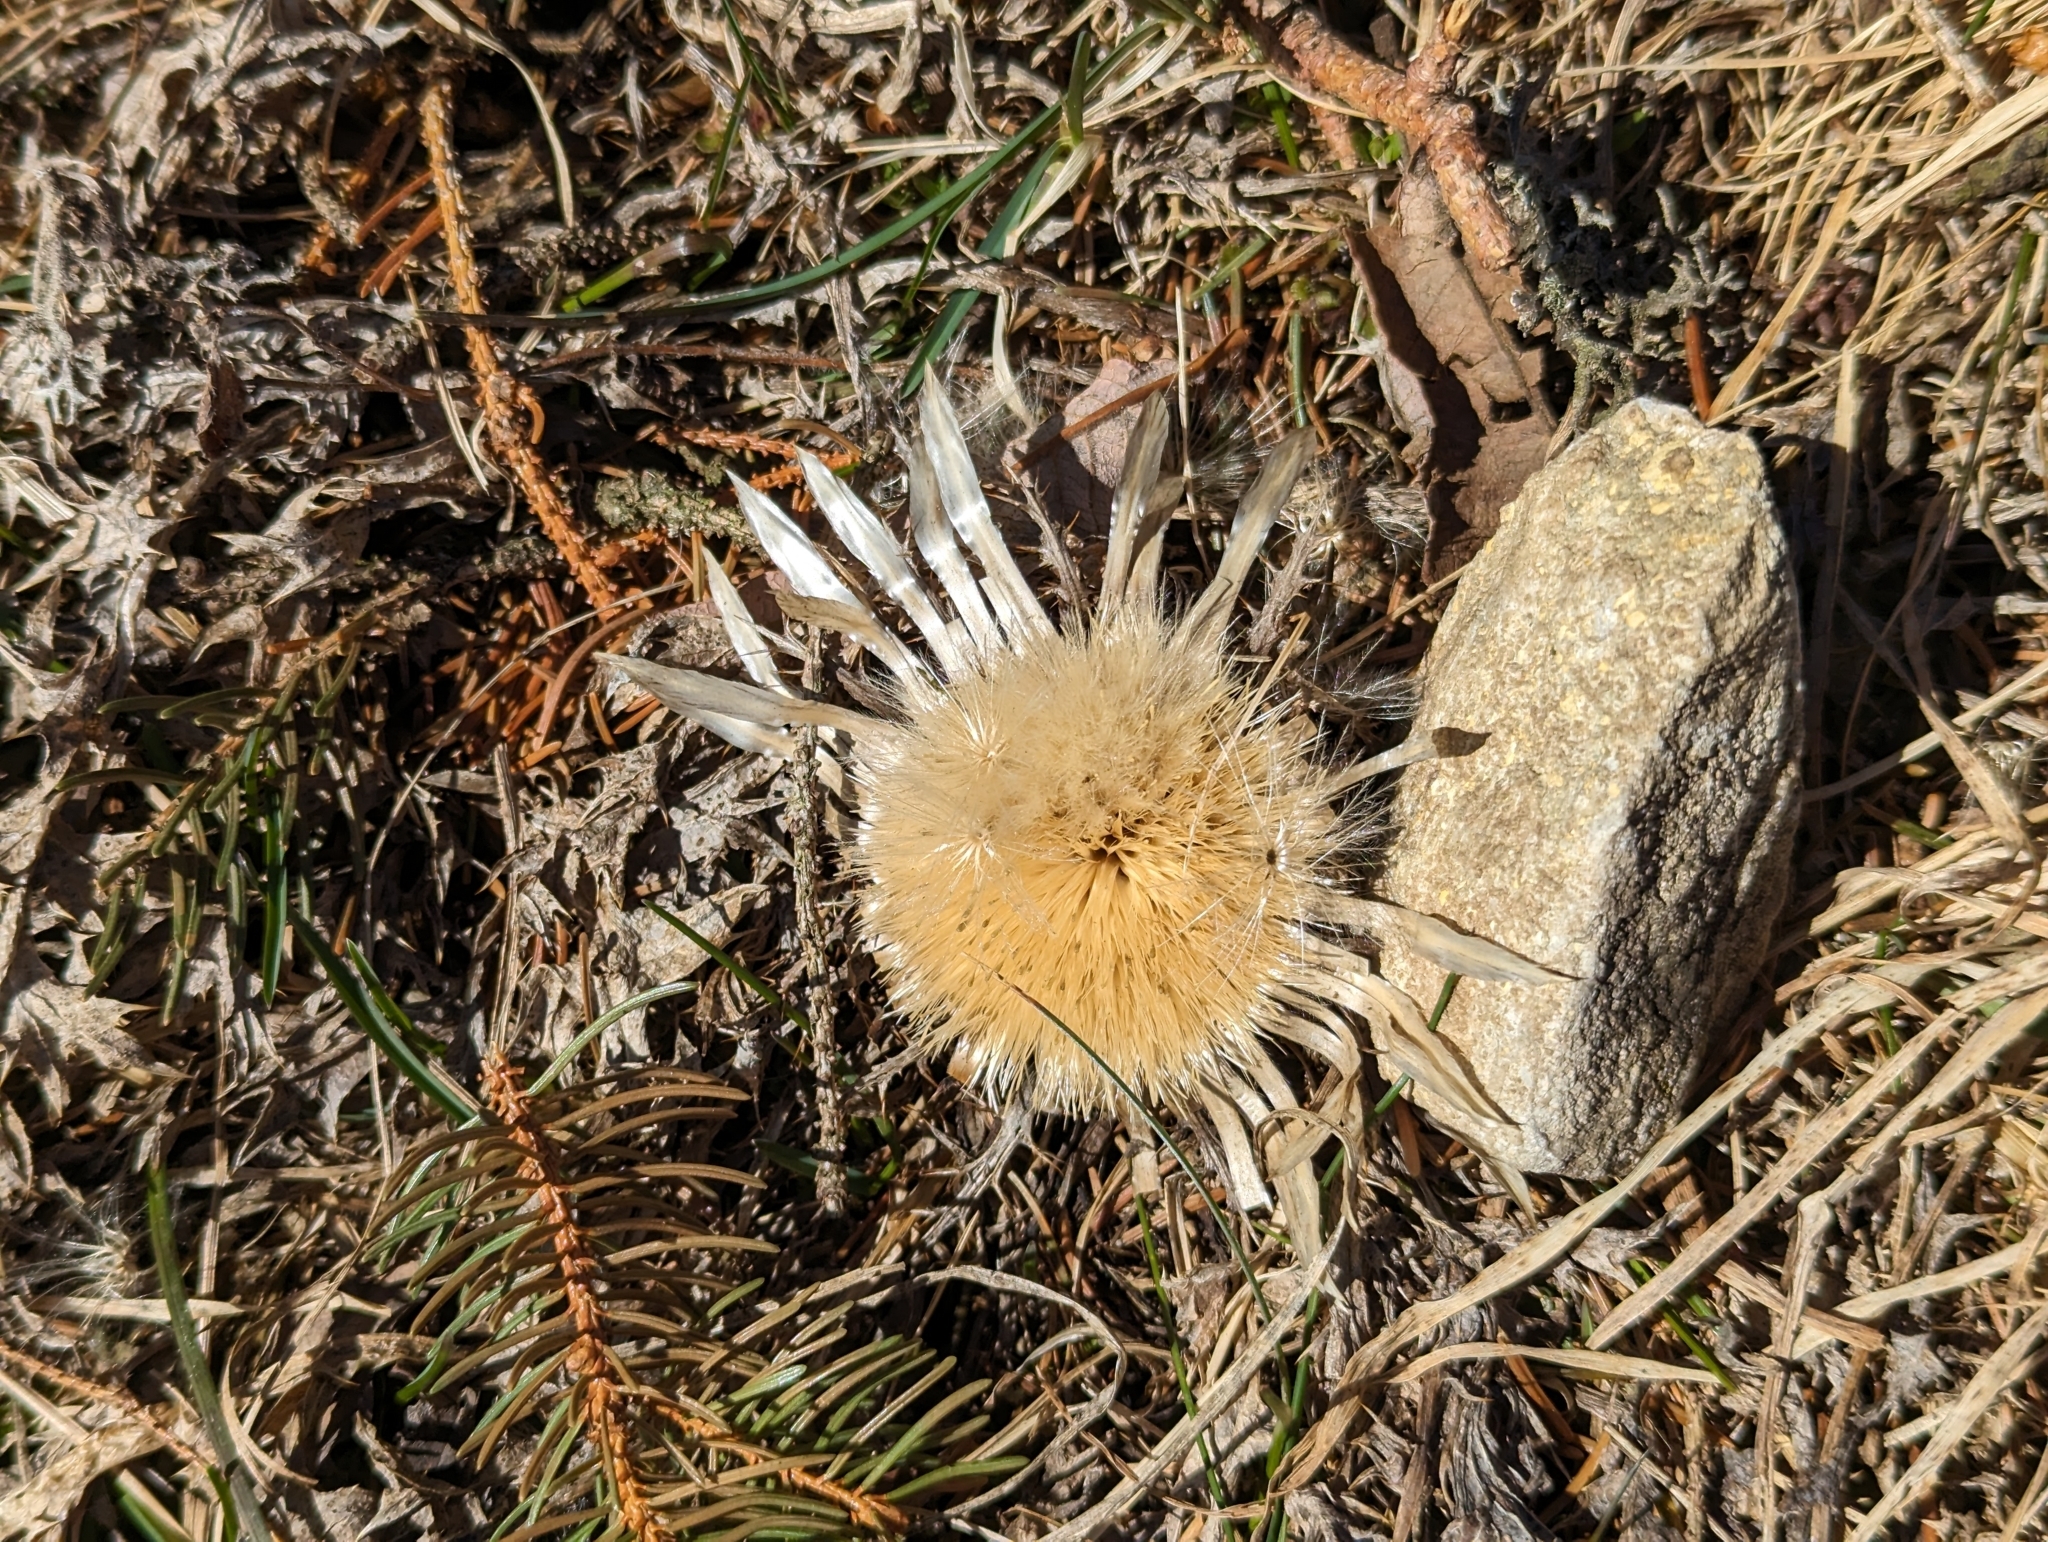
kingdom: Plantae
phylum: Tracheophyta
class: Magnoliopsida
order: Asterales
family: Asteraceae
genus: Carlina
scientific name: Carlina acaulis
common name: Stemless carline thistle
